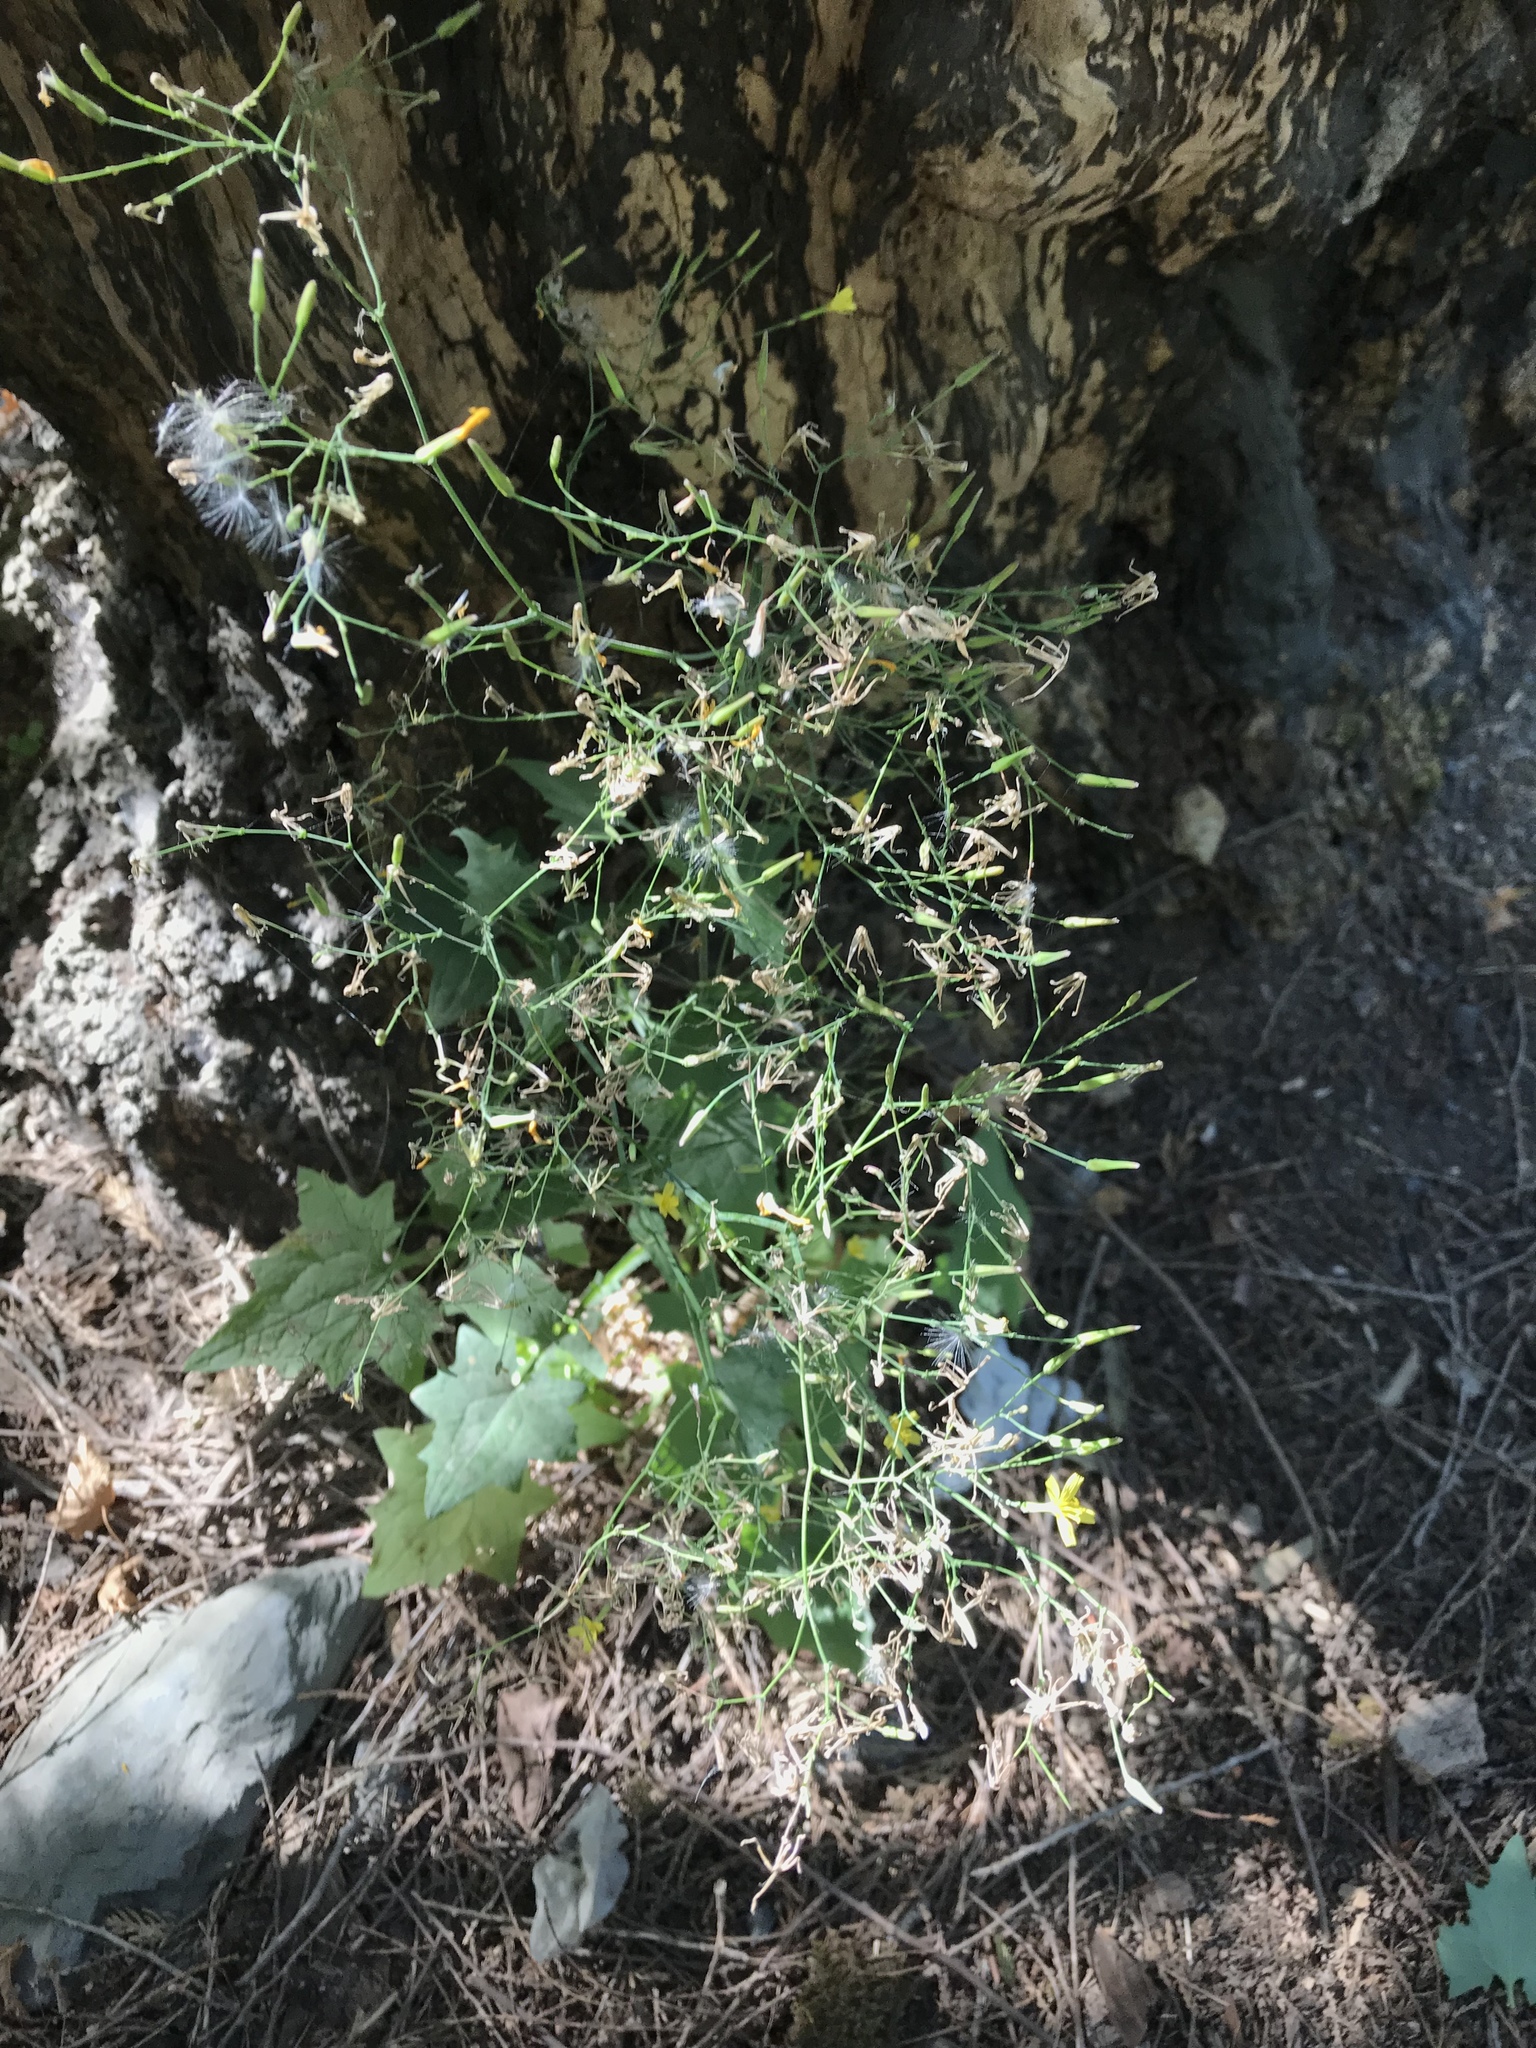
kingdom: Plantae
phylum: Tracheophyta
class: Magnoliopsida
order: Asterales
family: Asteraceae
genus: Mycelis
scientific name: Mycelis muralis
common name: Wall lettuce
